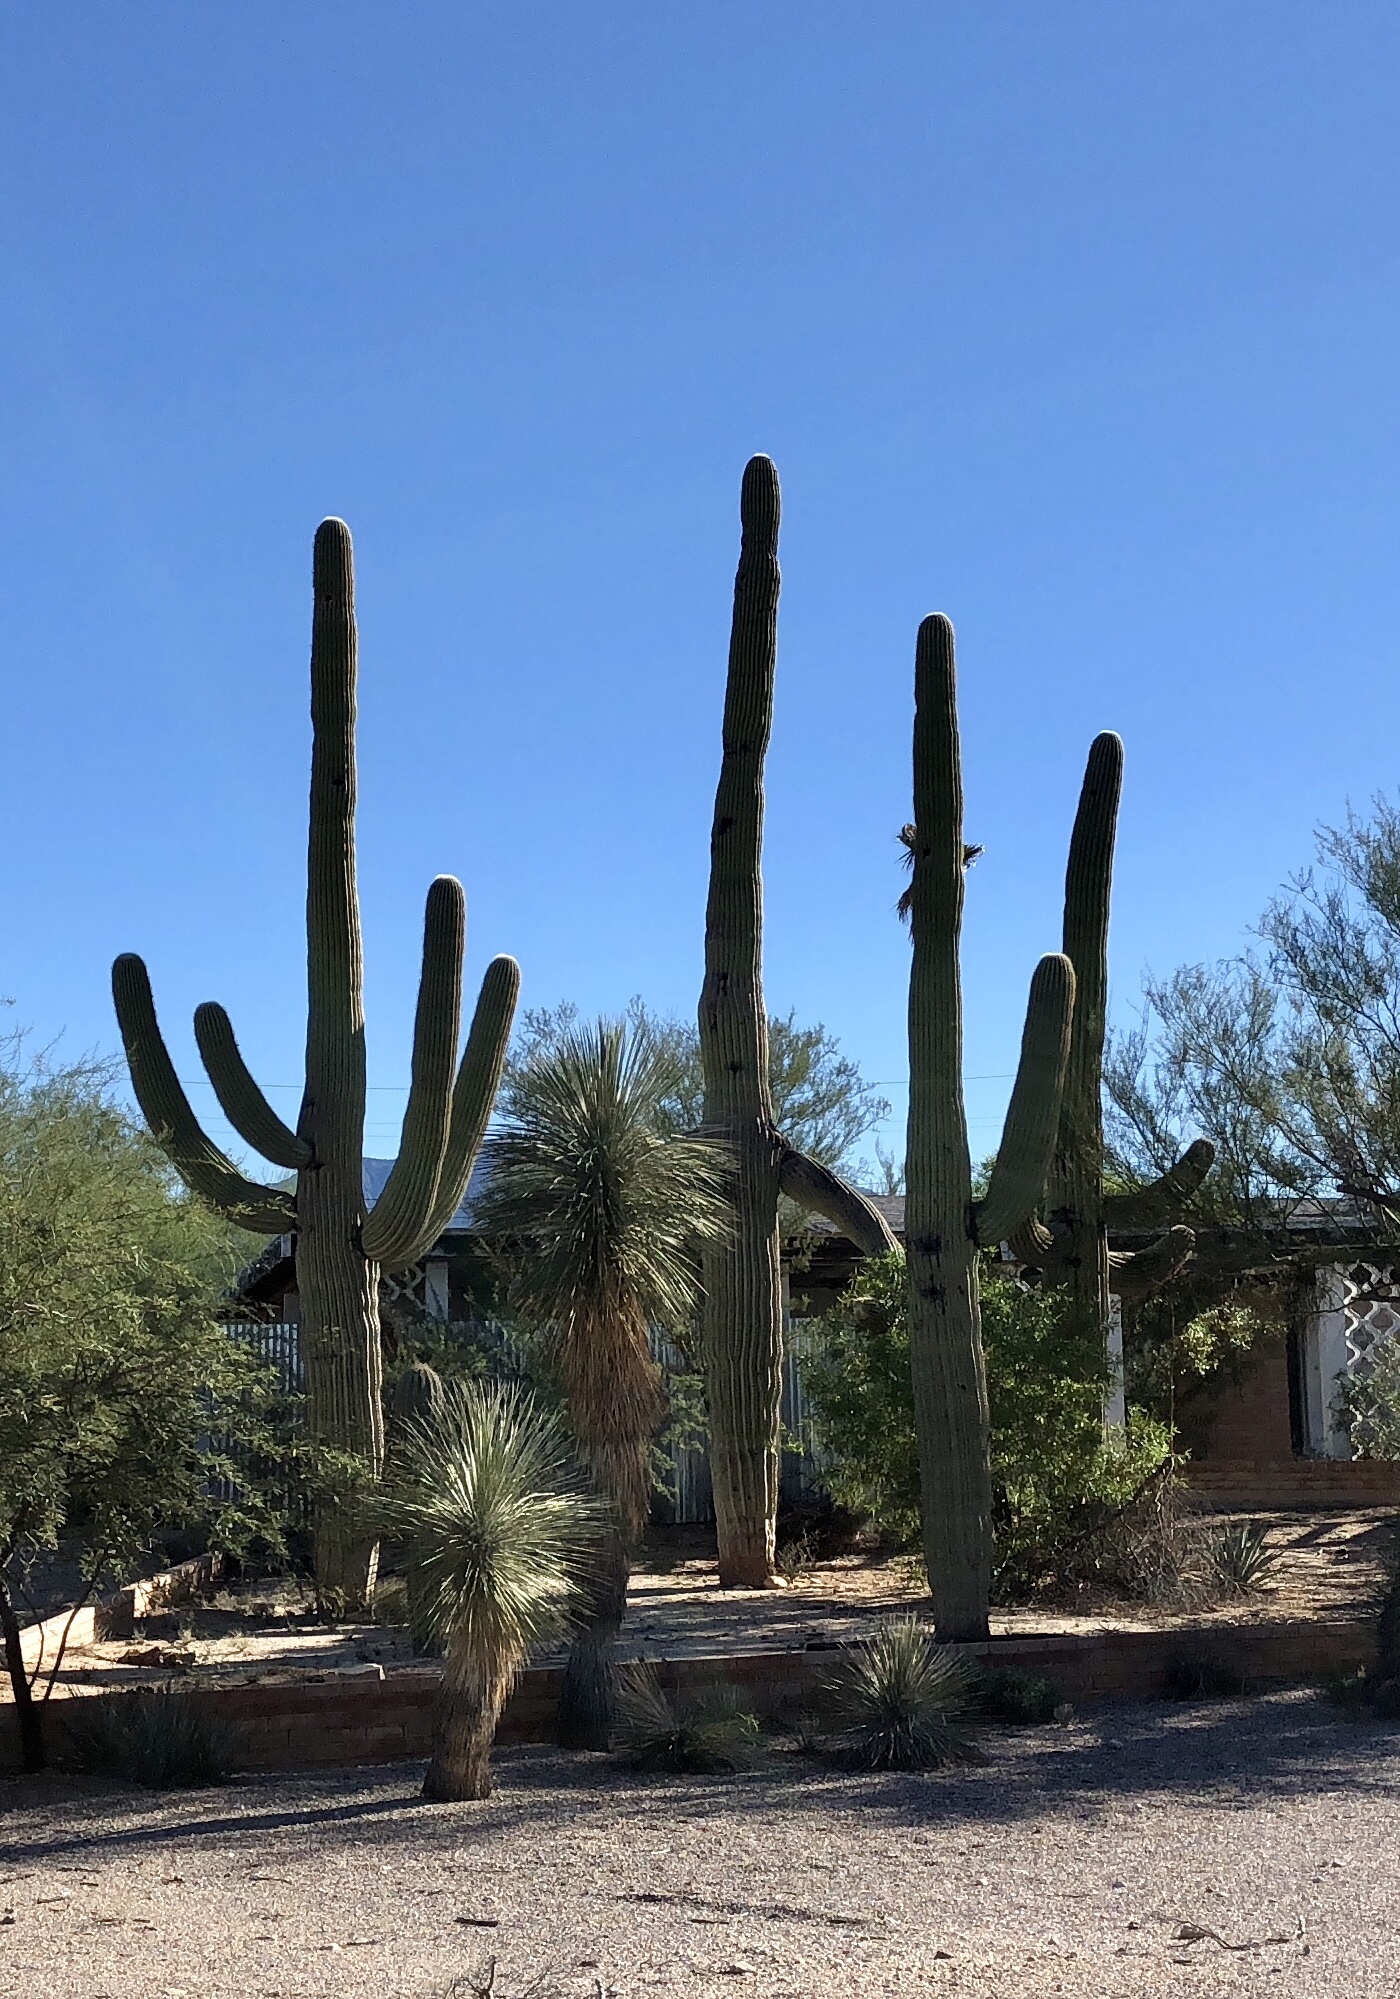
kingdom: Plantae
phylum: Tracheophyta
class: Magnoliopsida
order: Caryophyllales
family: Cactaceae
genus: Carnegiea
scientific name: Carnegiea gigantea
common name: Saguaro
